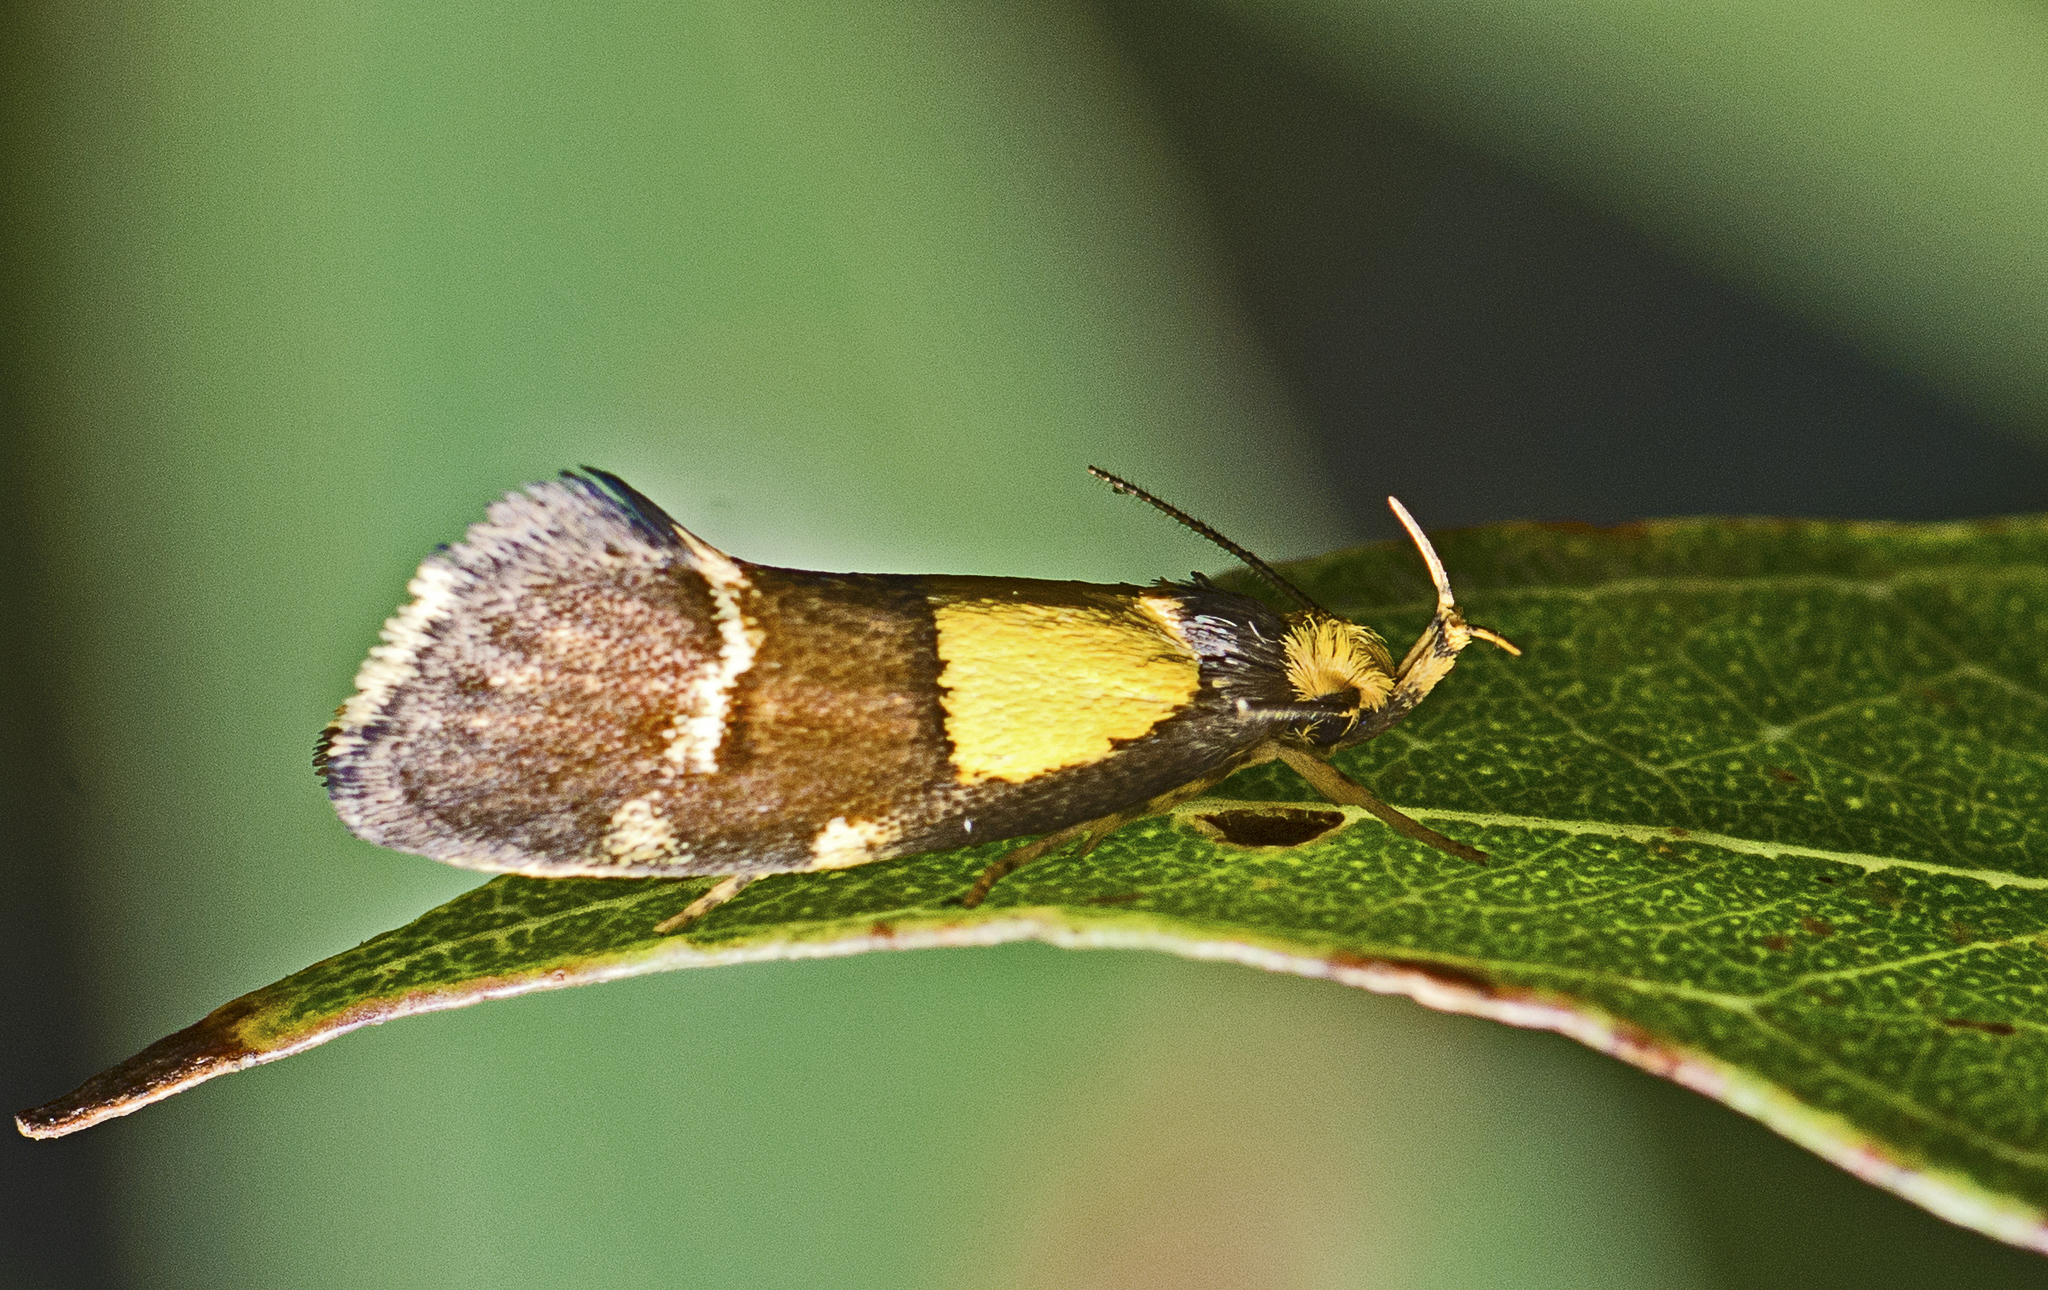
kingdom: Animalia
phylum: Arthropoda
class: Insecta
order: Lepidoptera
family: Oecophoridae
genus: Eulechria
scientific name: Eulechria basiplaga
